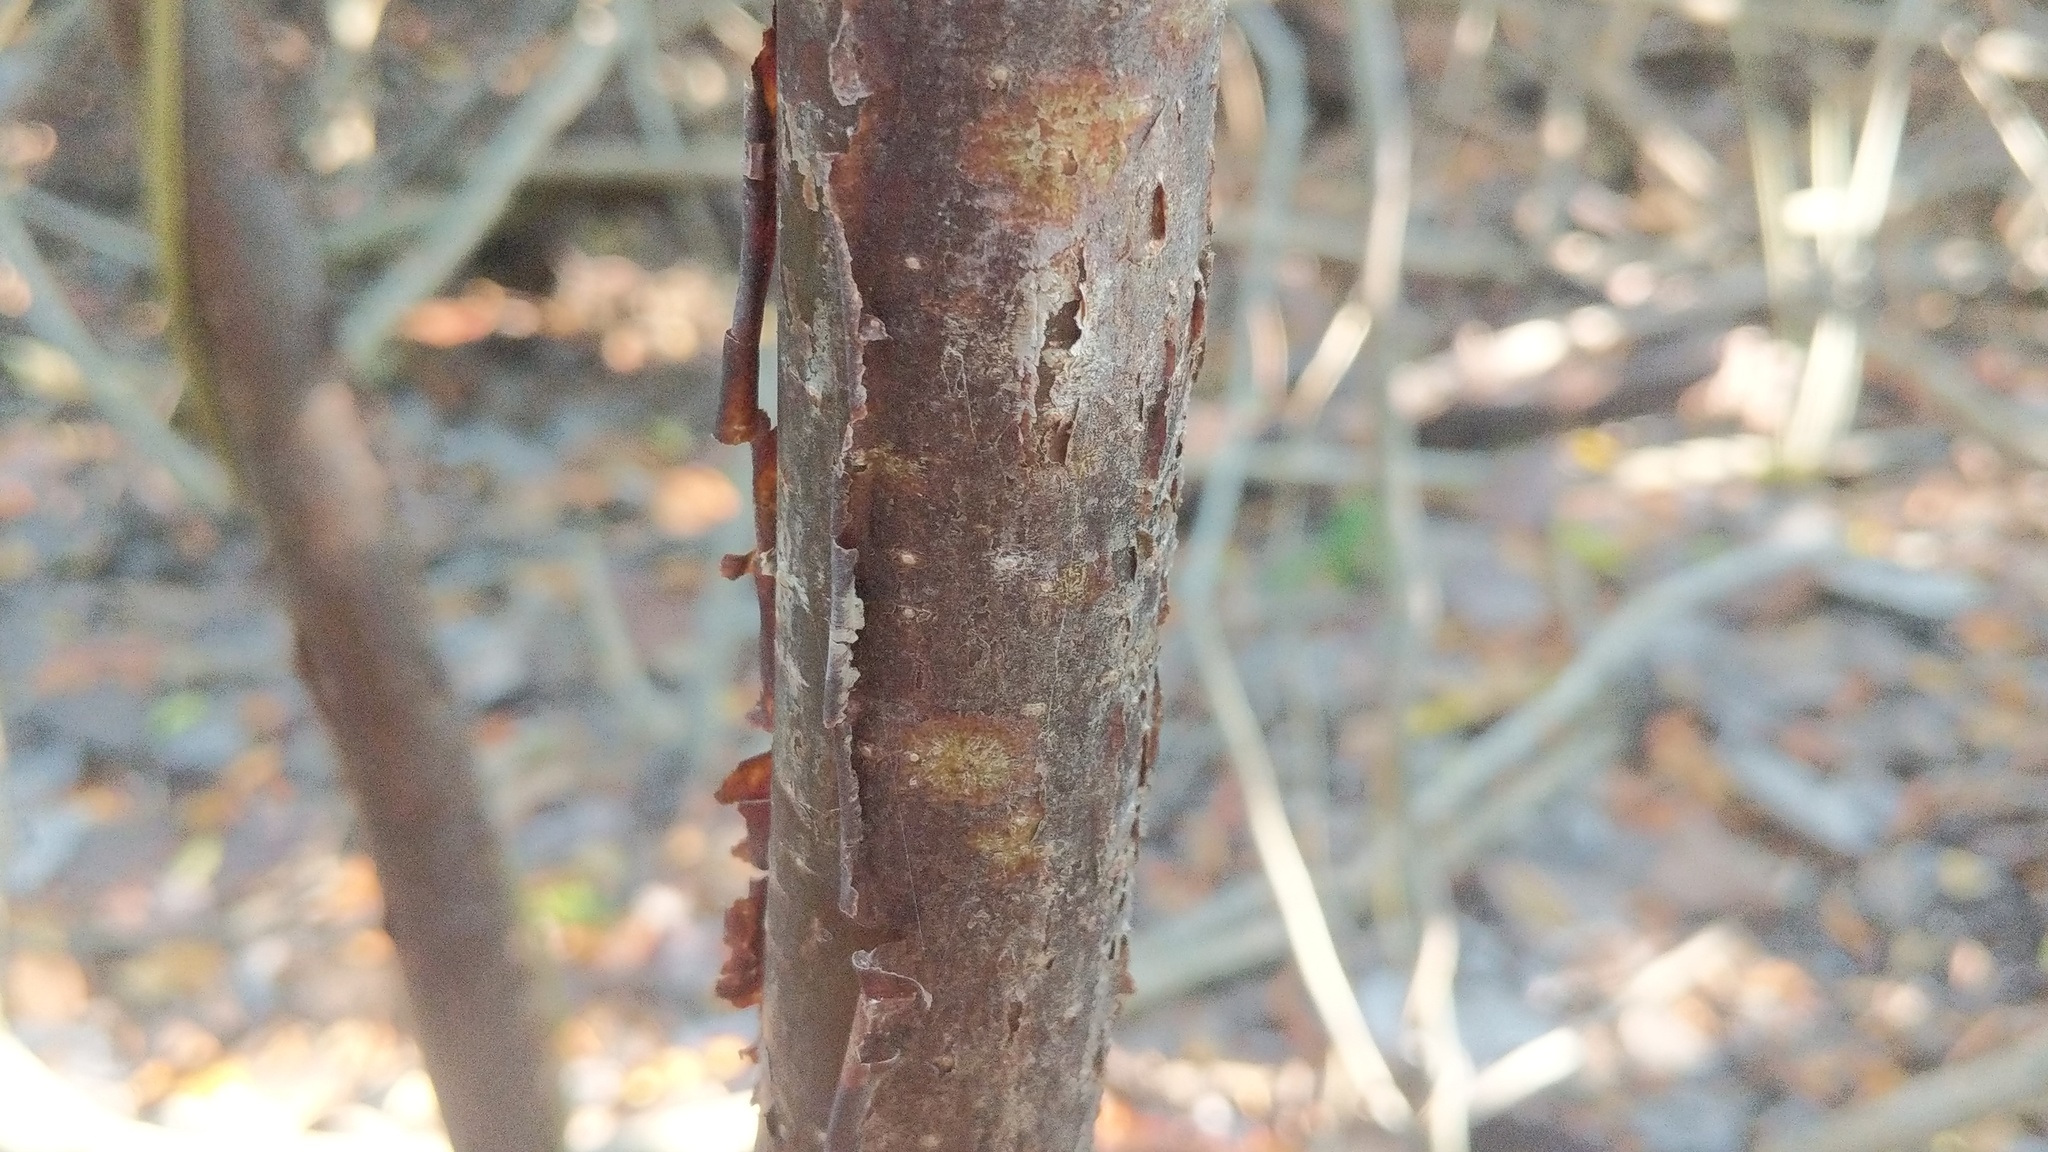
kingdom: Plantae
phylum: Tracheophyta
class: Magnoliopsida
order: Sapindales
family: Burseraceae
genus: Bursera
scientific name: Bursera simaruba
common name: Turpentine tree
